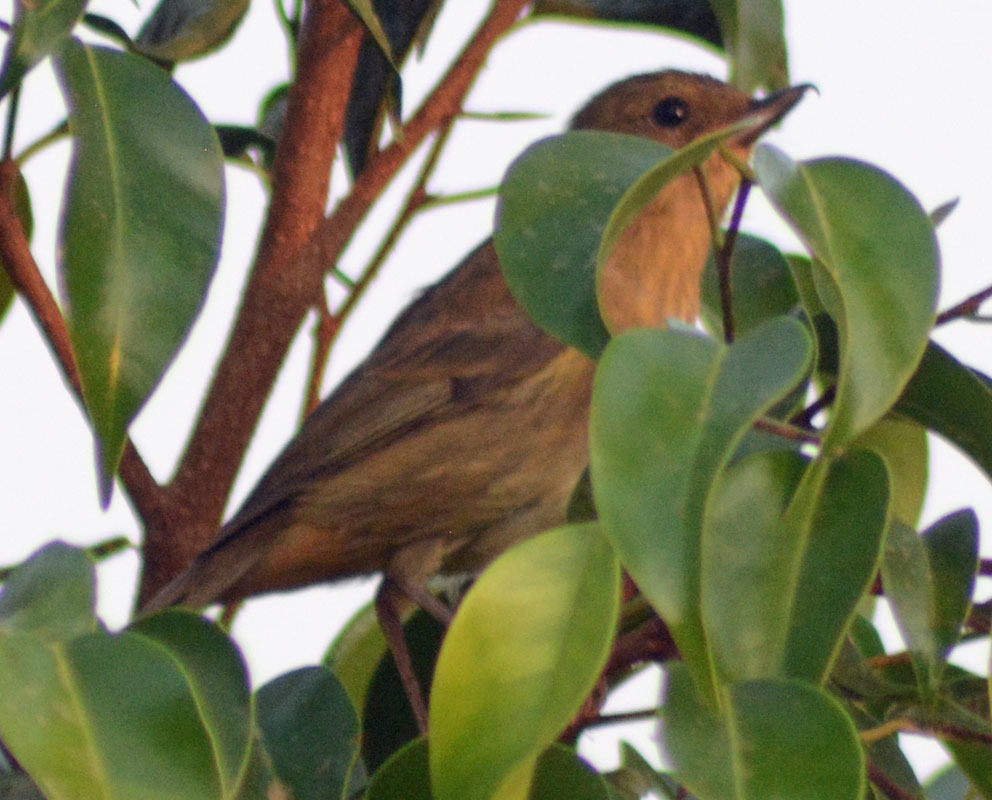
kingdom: Animalia
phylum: Chordata
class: Aves
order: Passeriformes
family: Thraupidae
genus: Diglossa
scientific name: Diglossa baritula
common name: Cinnamon-bellied flowerpiercer
